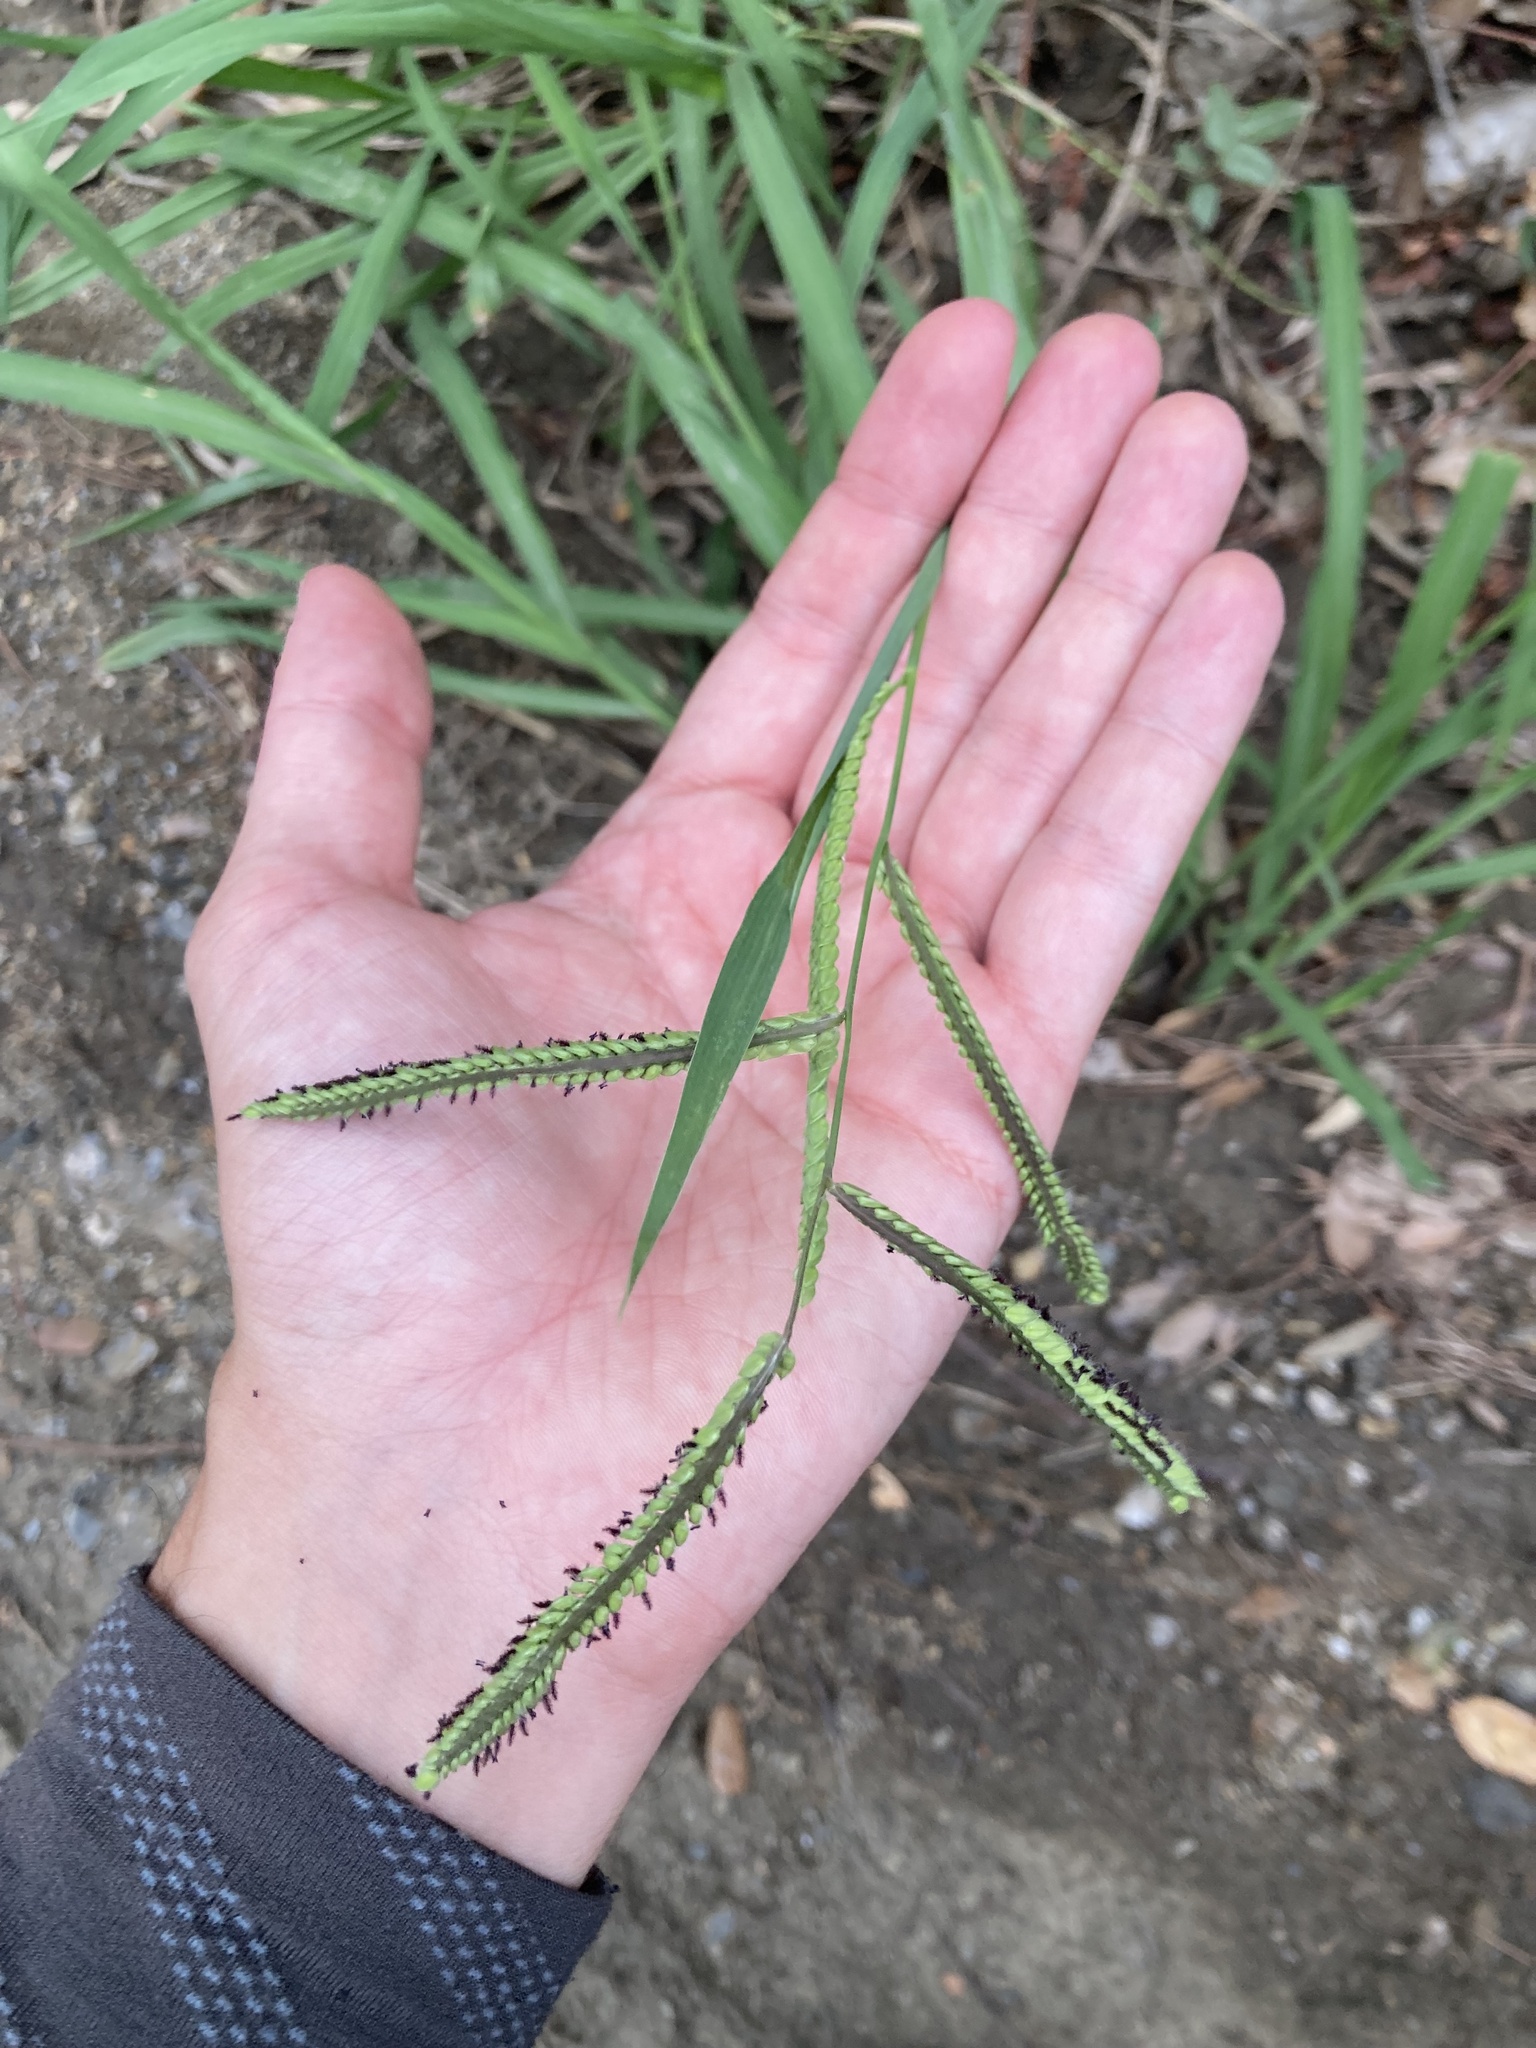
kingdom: Plantae
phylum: Tracheophyta
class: Liliopsida
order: Poales
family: Poaceae
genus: Paspalum
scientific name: Paspalum dilatatum
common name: Dallisgrass
